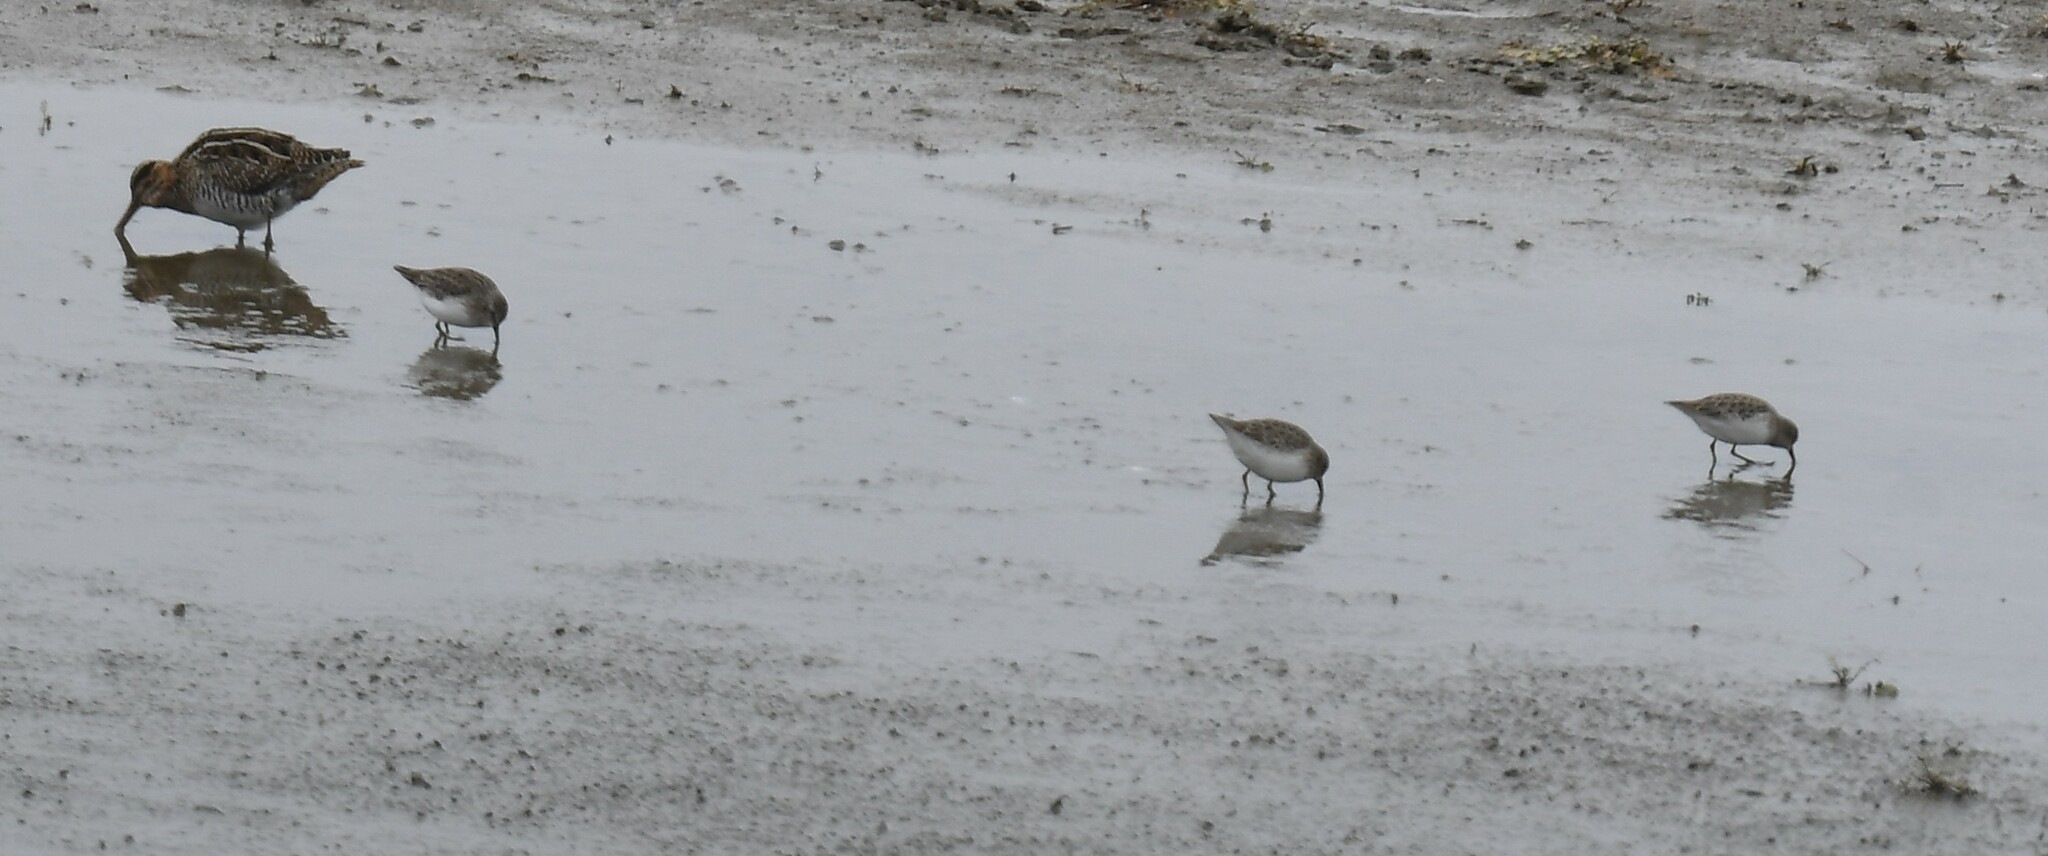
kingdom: Animalia
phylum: Chordata
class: Aves
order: Charadriiformes
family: Scolopacidae
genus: Calidris
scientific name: Calidris minutilla
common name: Least sandpiper
